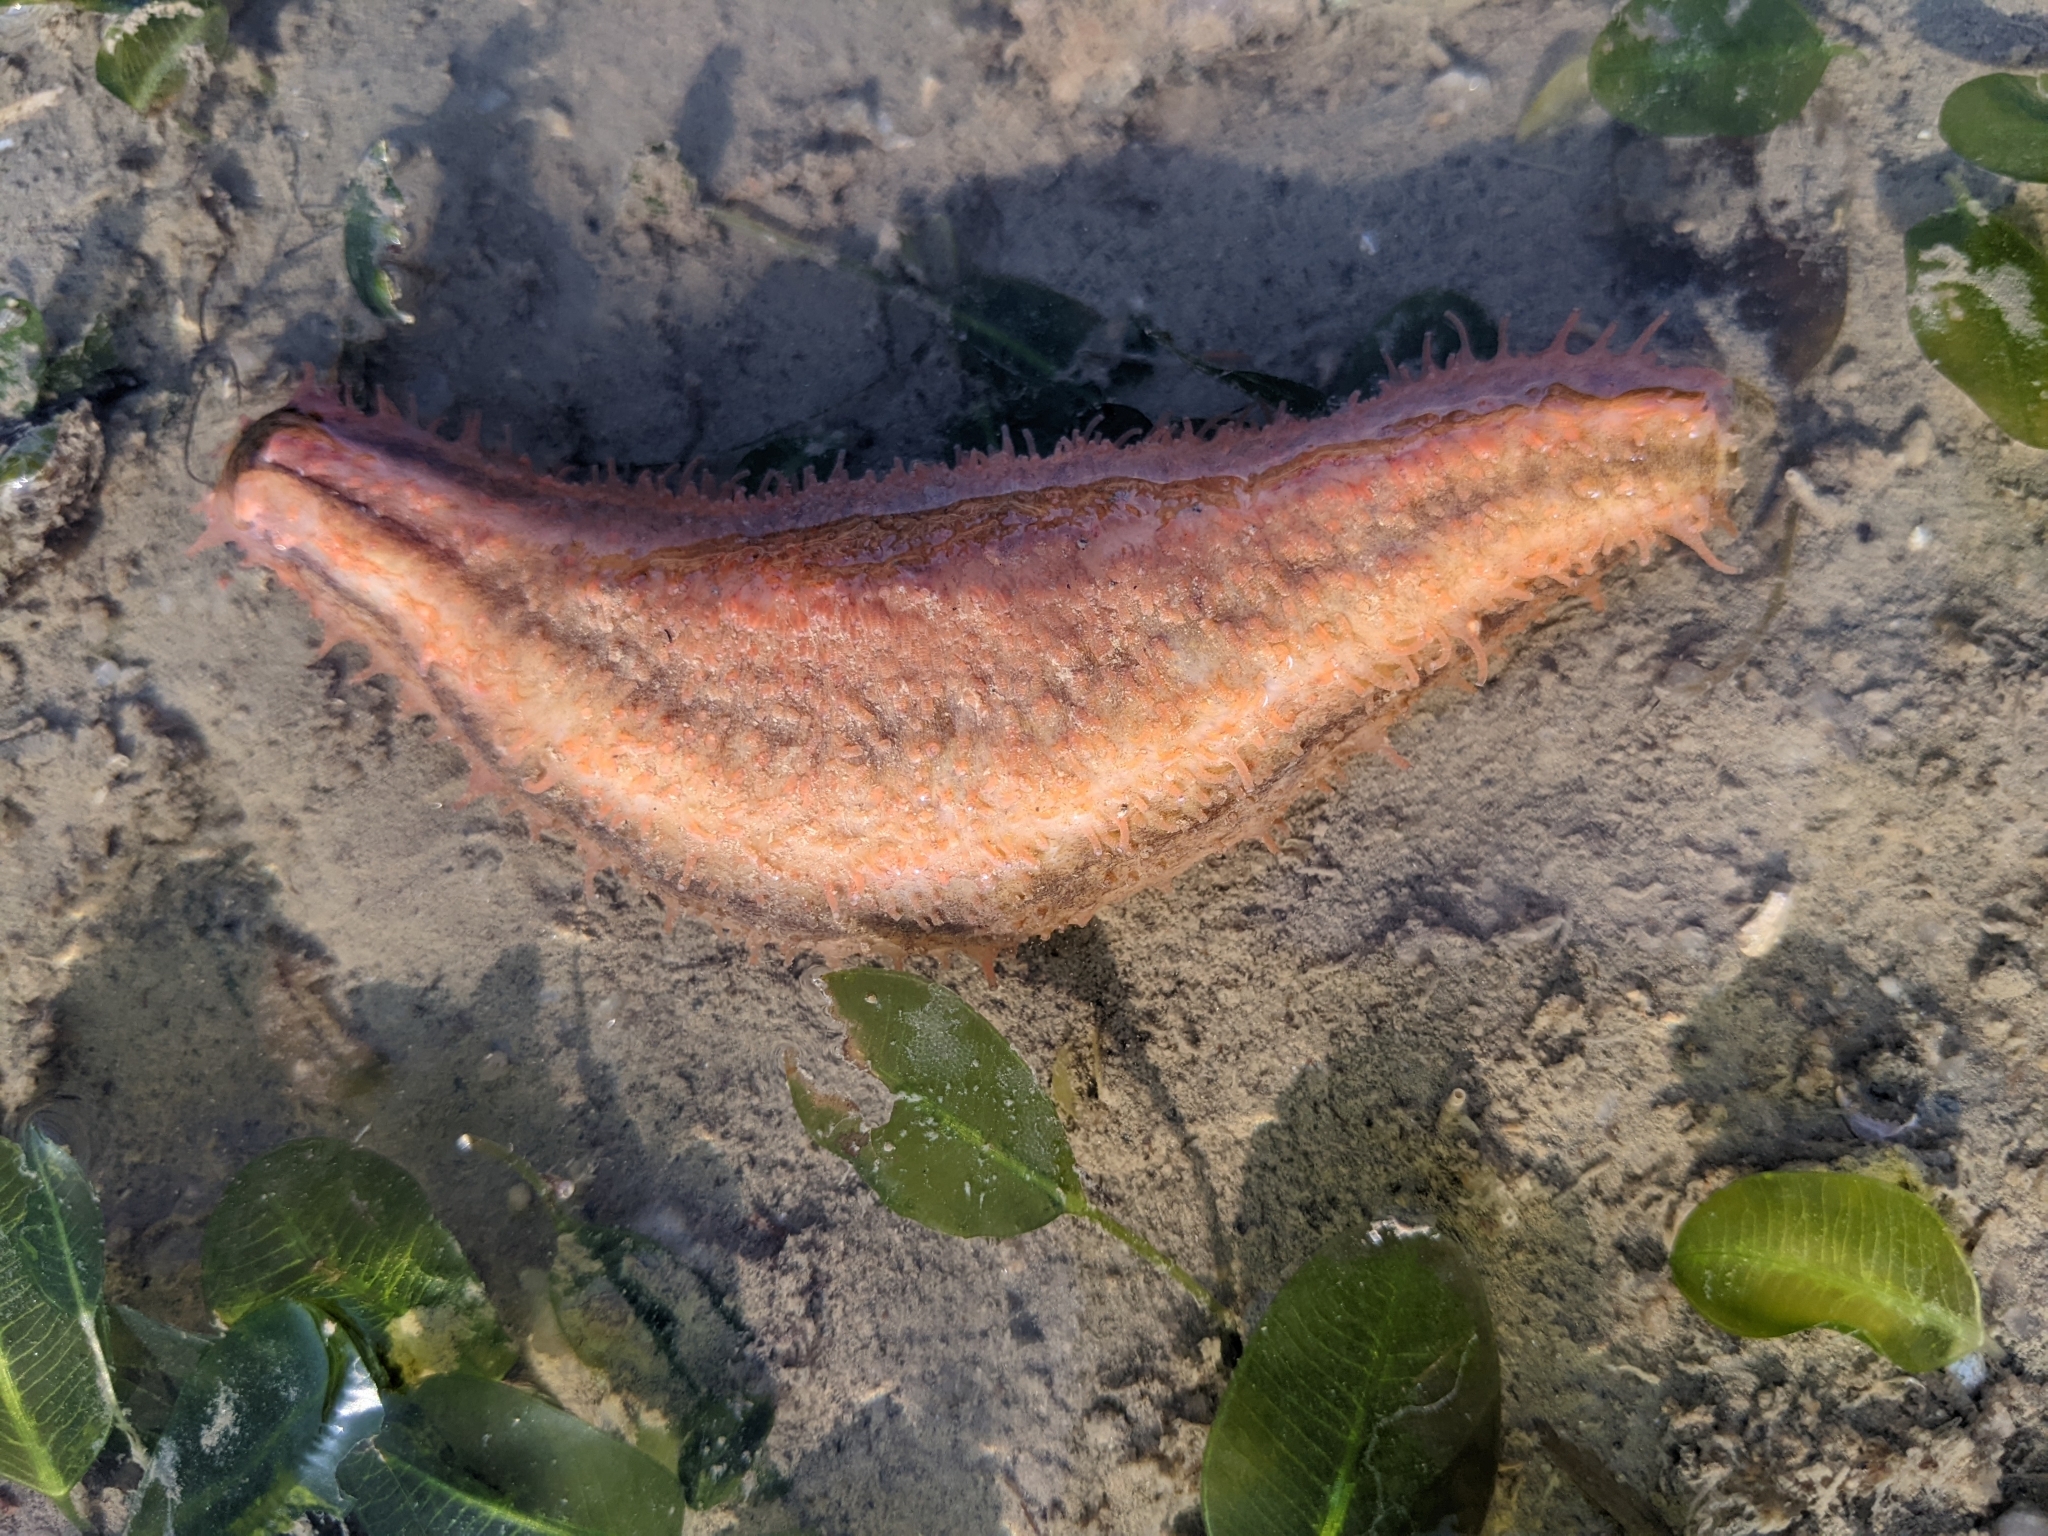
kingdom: Animalia
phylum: Echinodermata
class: Holothuroidea
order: Dendrochirotida
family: Cucumariidae
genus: Mensamaria
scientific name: Mensamaria intercedens
